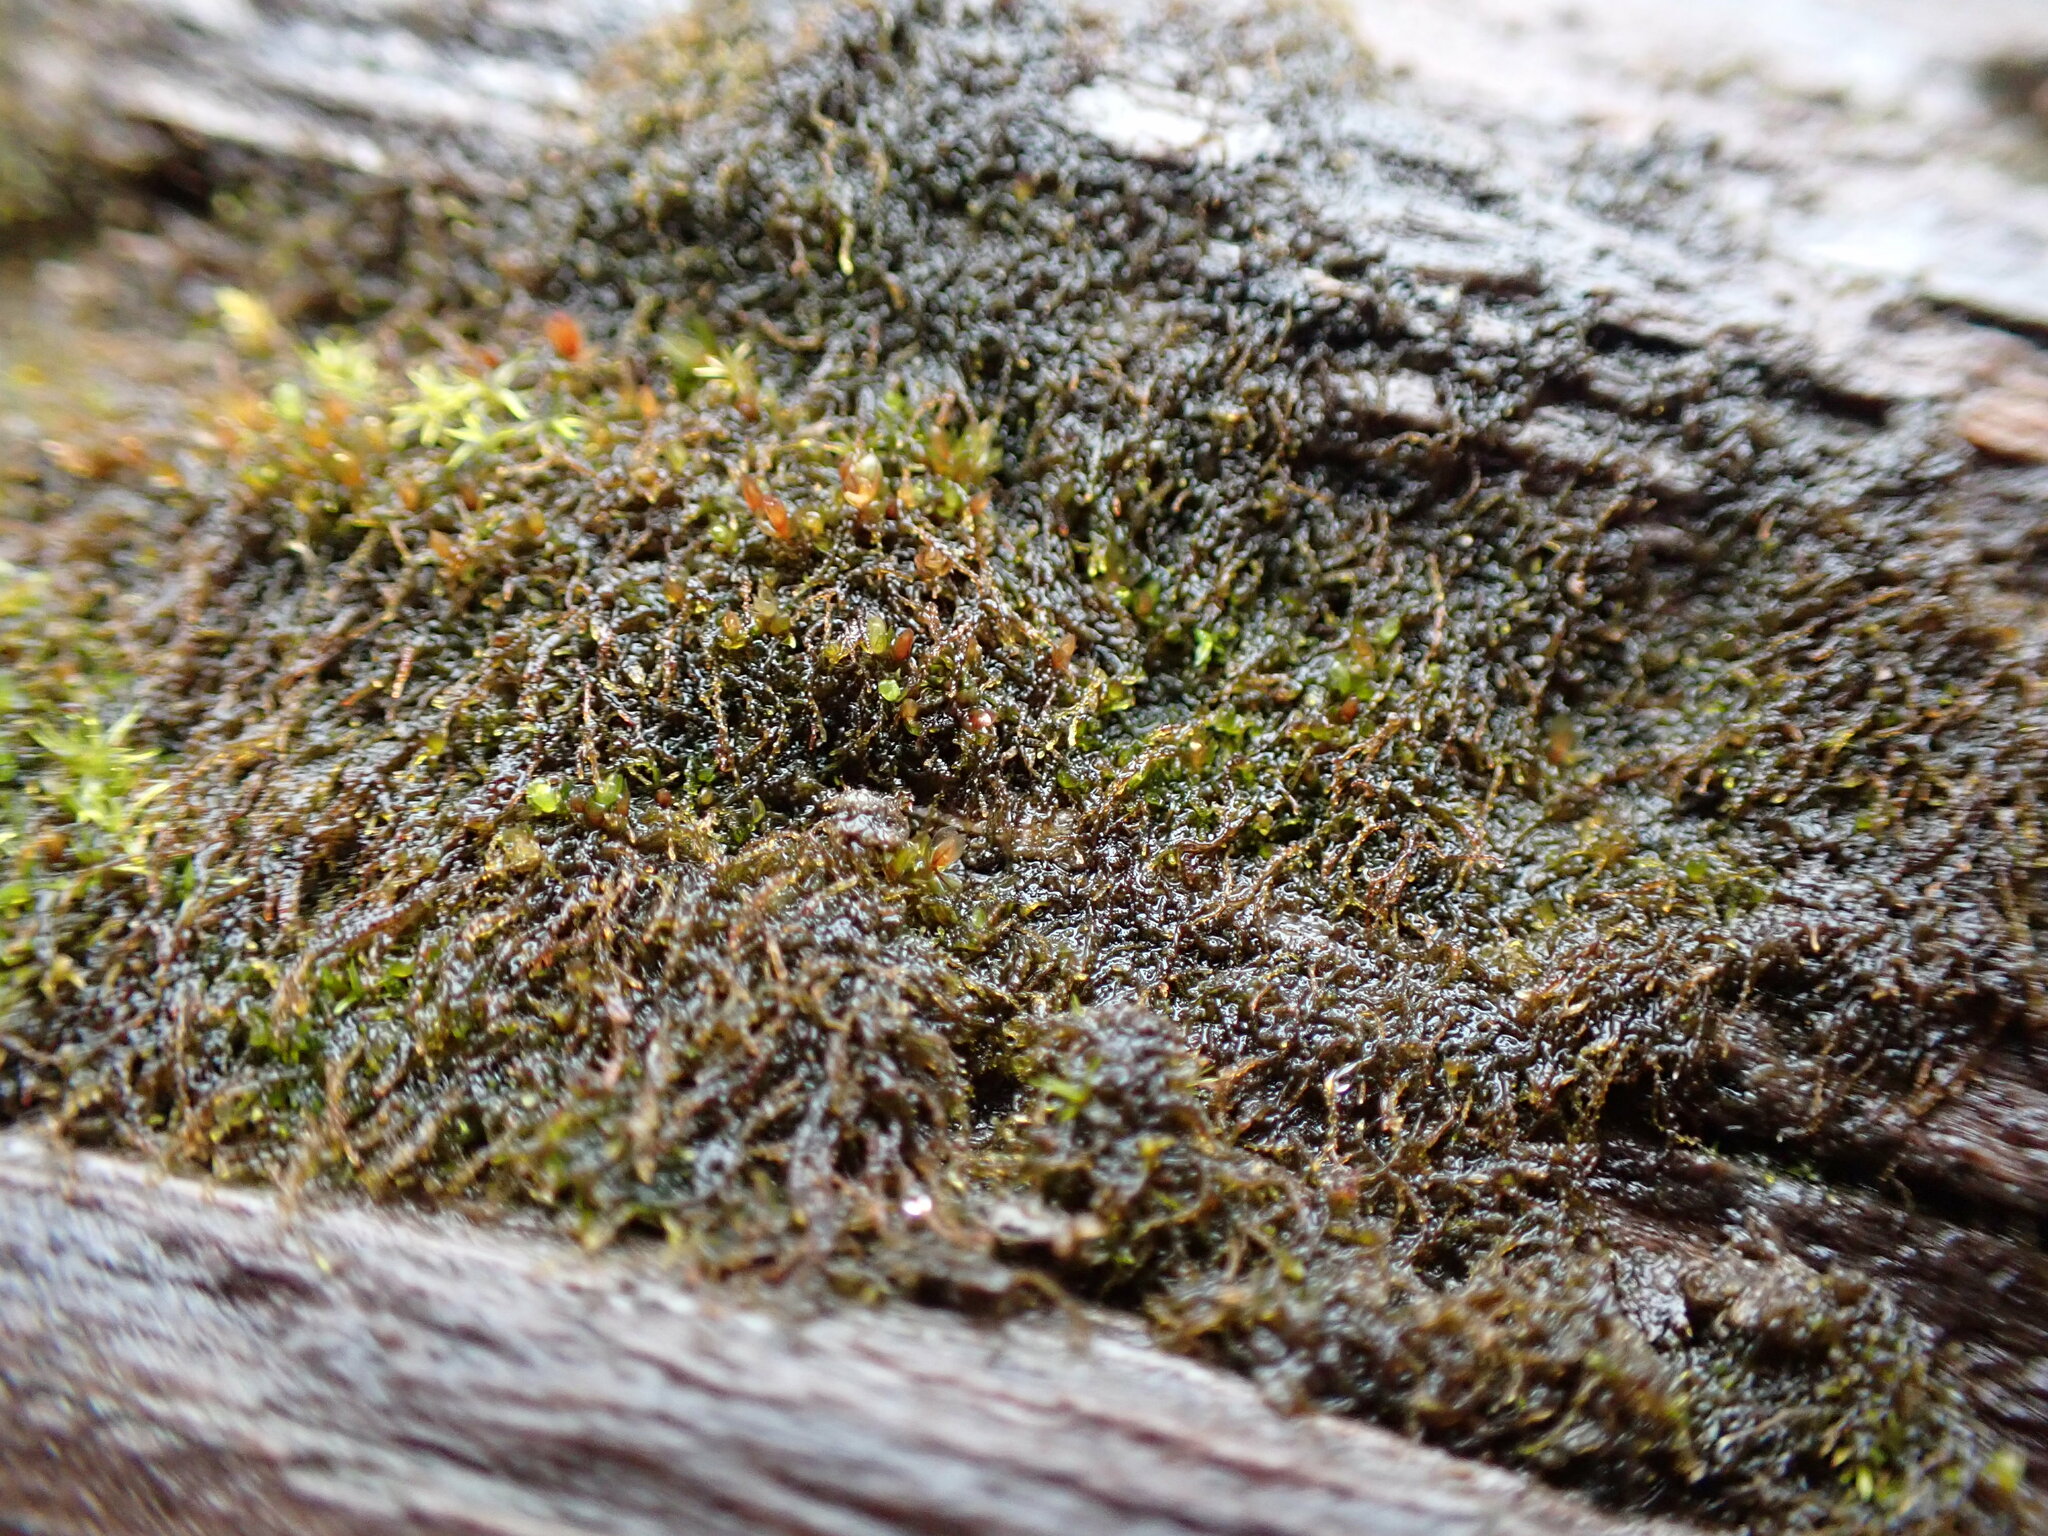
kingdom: Plantae
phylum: Marchantiophyta
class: Jungermanniopsida
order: Jungermanniales
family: Cephaloziellaceae
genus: Cephaloziella
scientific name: Cephaloziella divaricata
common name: Spreading threadwort
